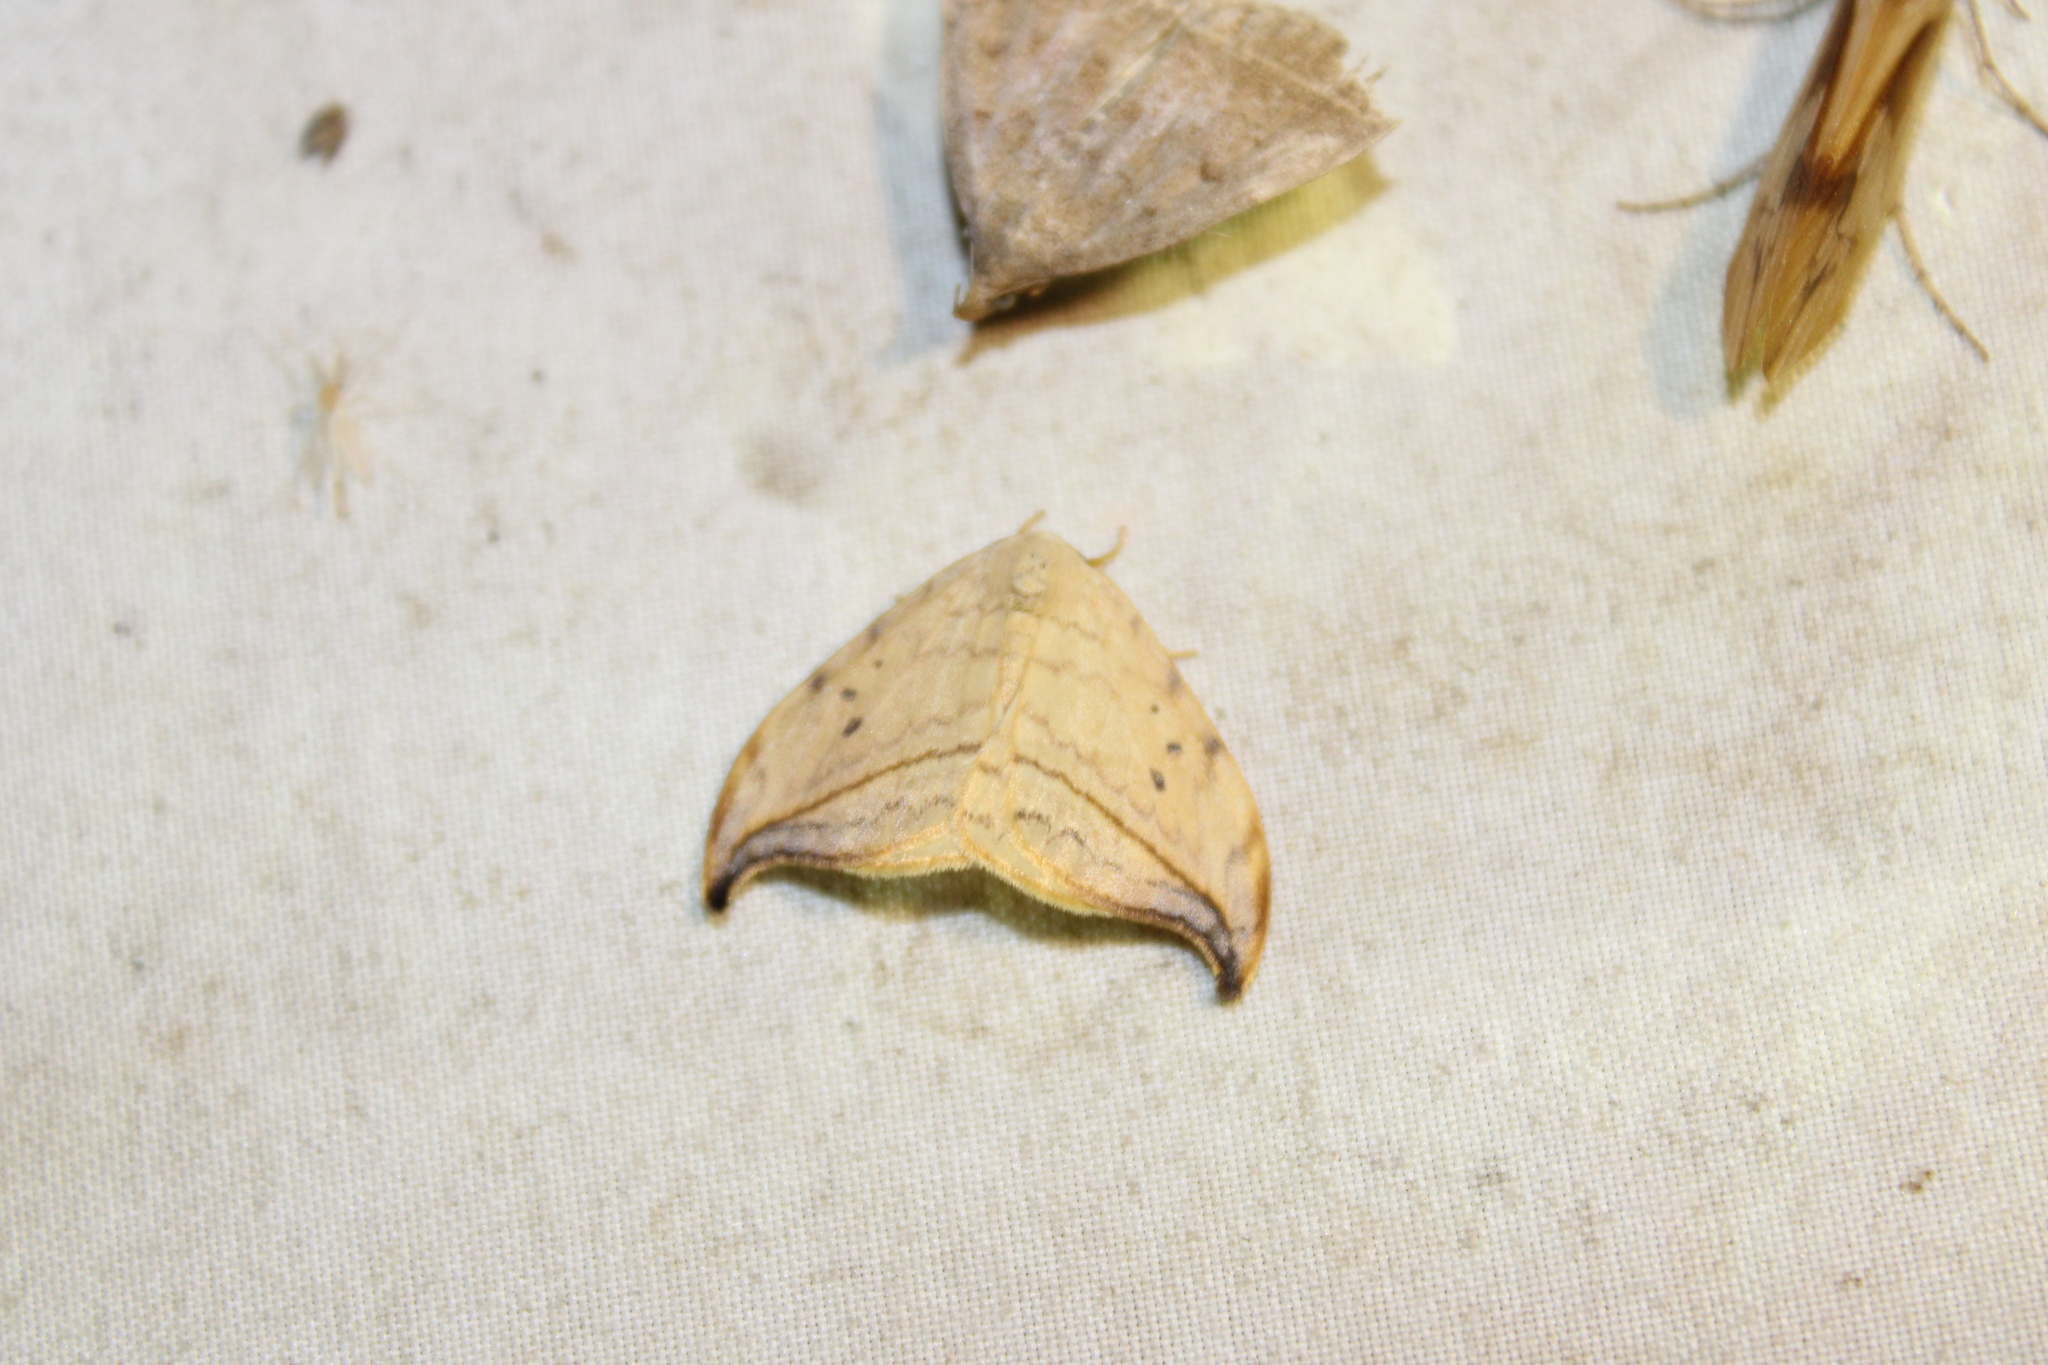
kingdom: Animalia
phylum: Arthropoda
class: Insecta
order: Lepidoptera
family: Drepanidae
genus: Drepana
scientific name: Drepana arcuata
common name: Arched hooktip moth
